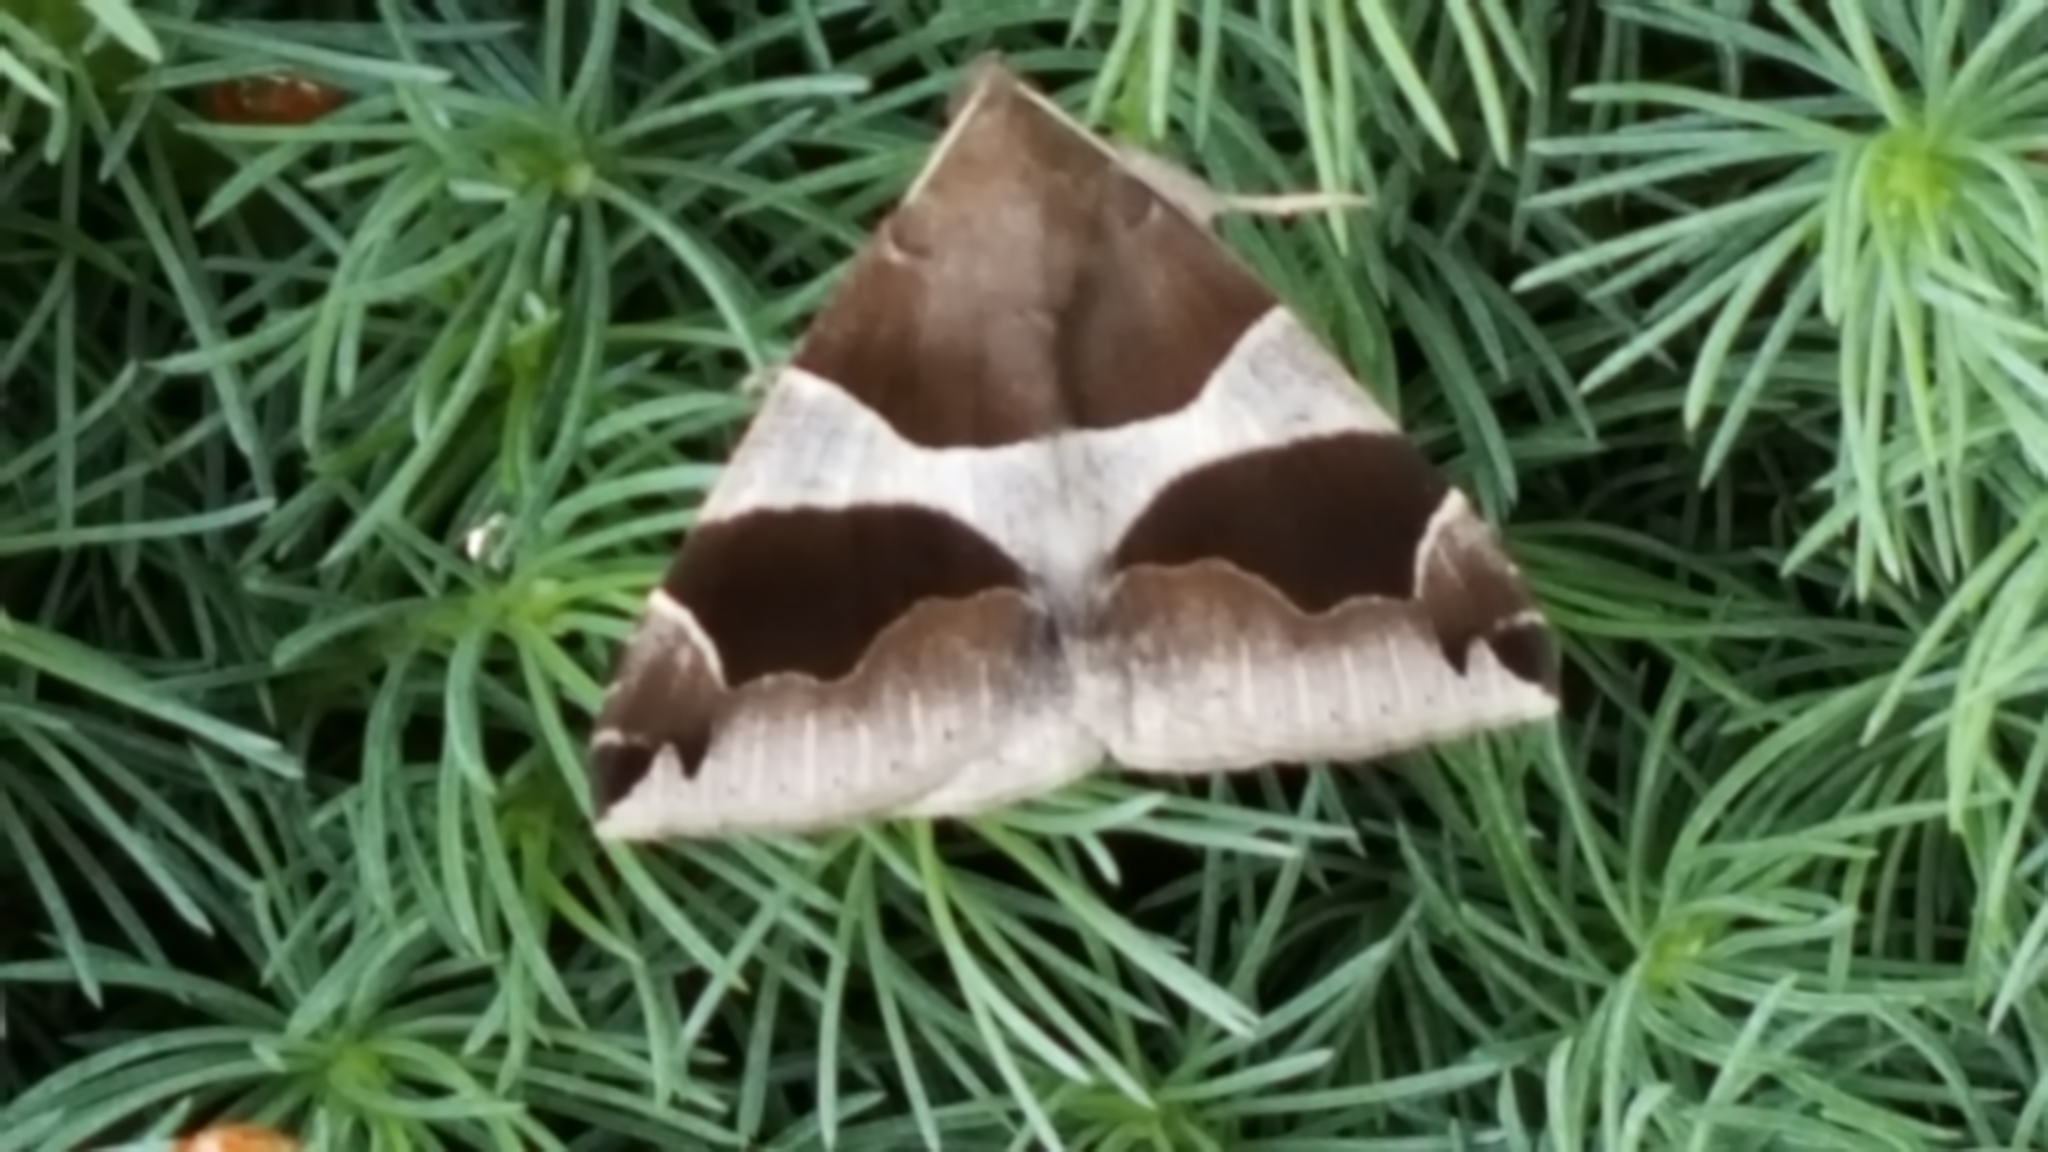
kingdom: Animalia
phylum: Arthropoda
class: Insecta
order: Lepidoptera
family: Erebidae
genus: Dysgonia
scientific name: Dysgonia algira
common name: Passenger
